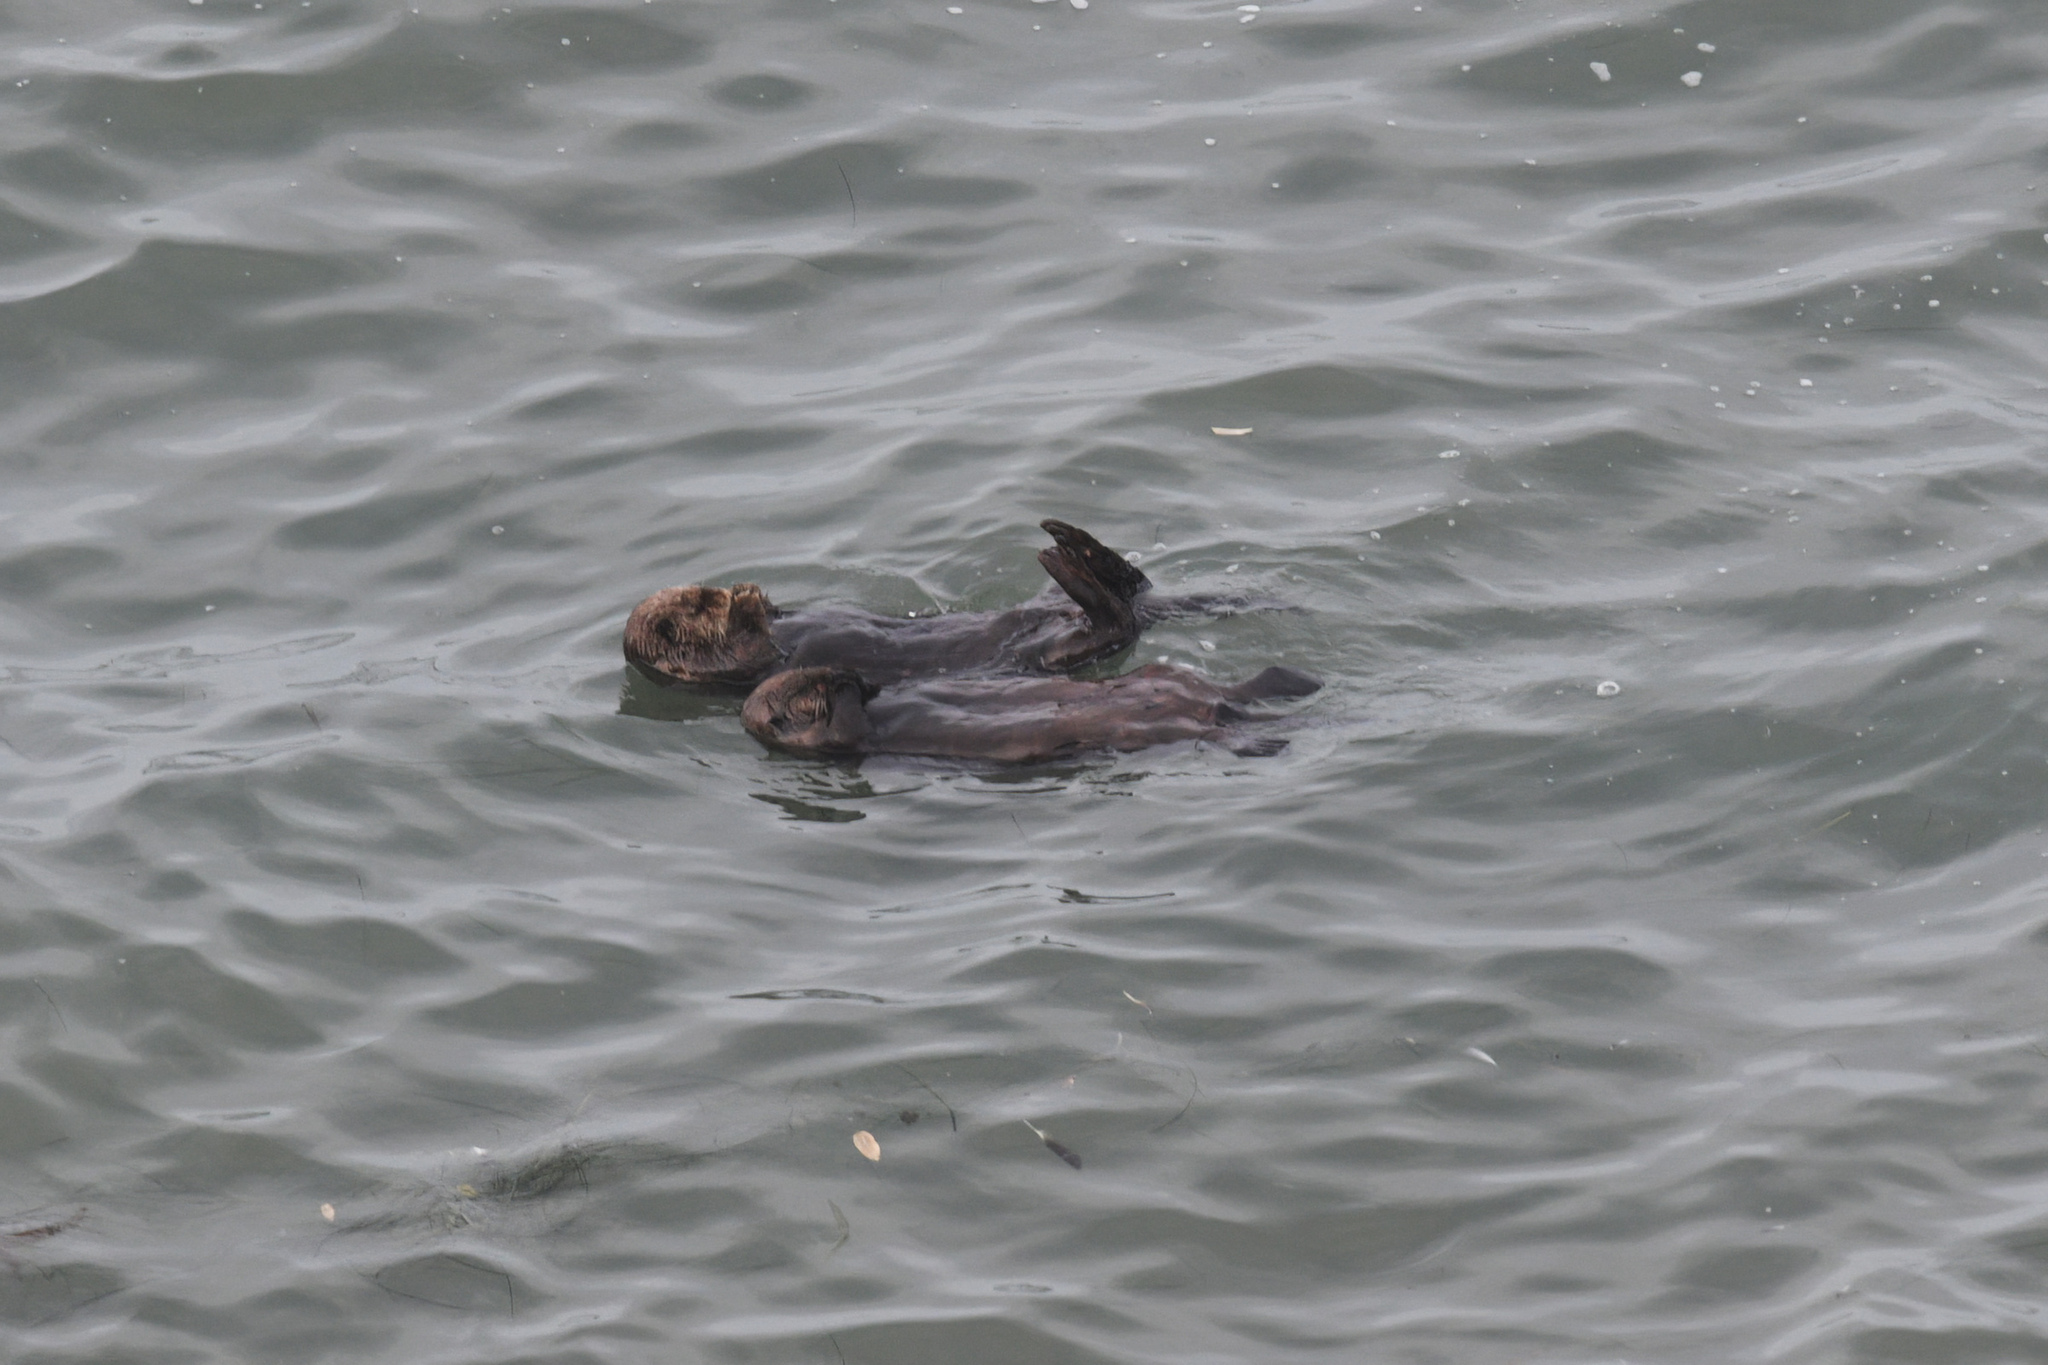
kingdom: Animalia
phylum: Chordata
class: Mammalia
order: Carnivora
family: Mustelidae
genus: Enhydra
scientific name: Enhydra lutris
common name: Sea otter
